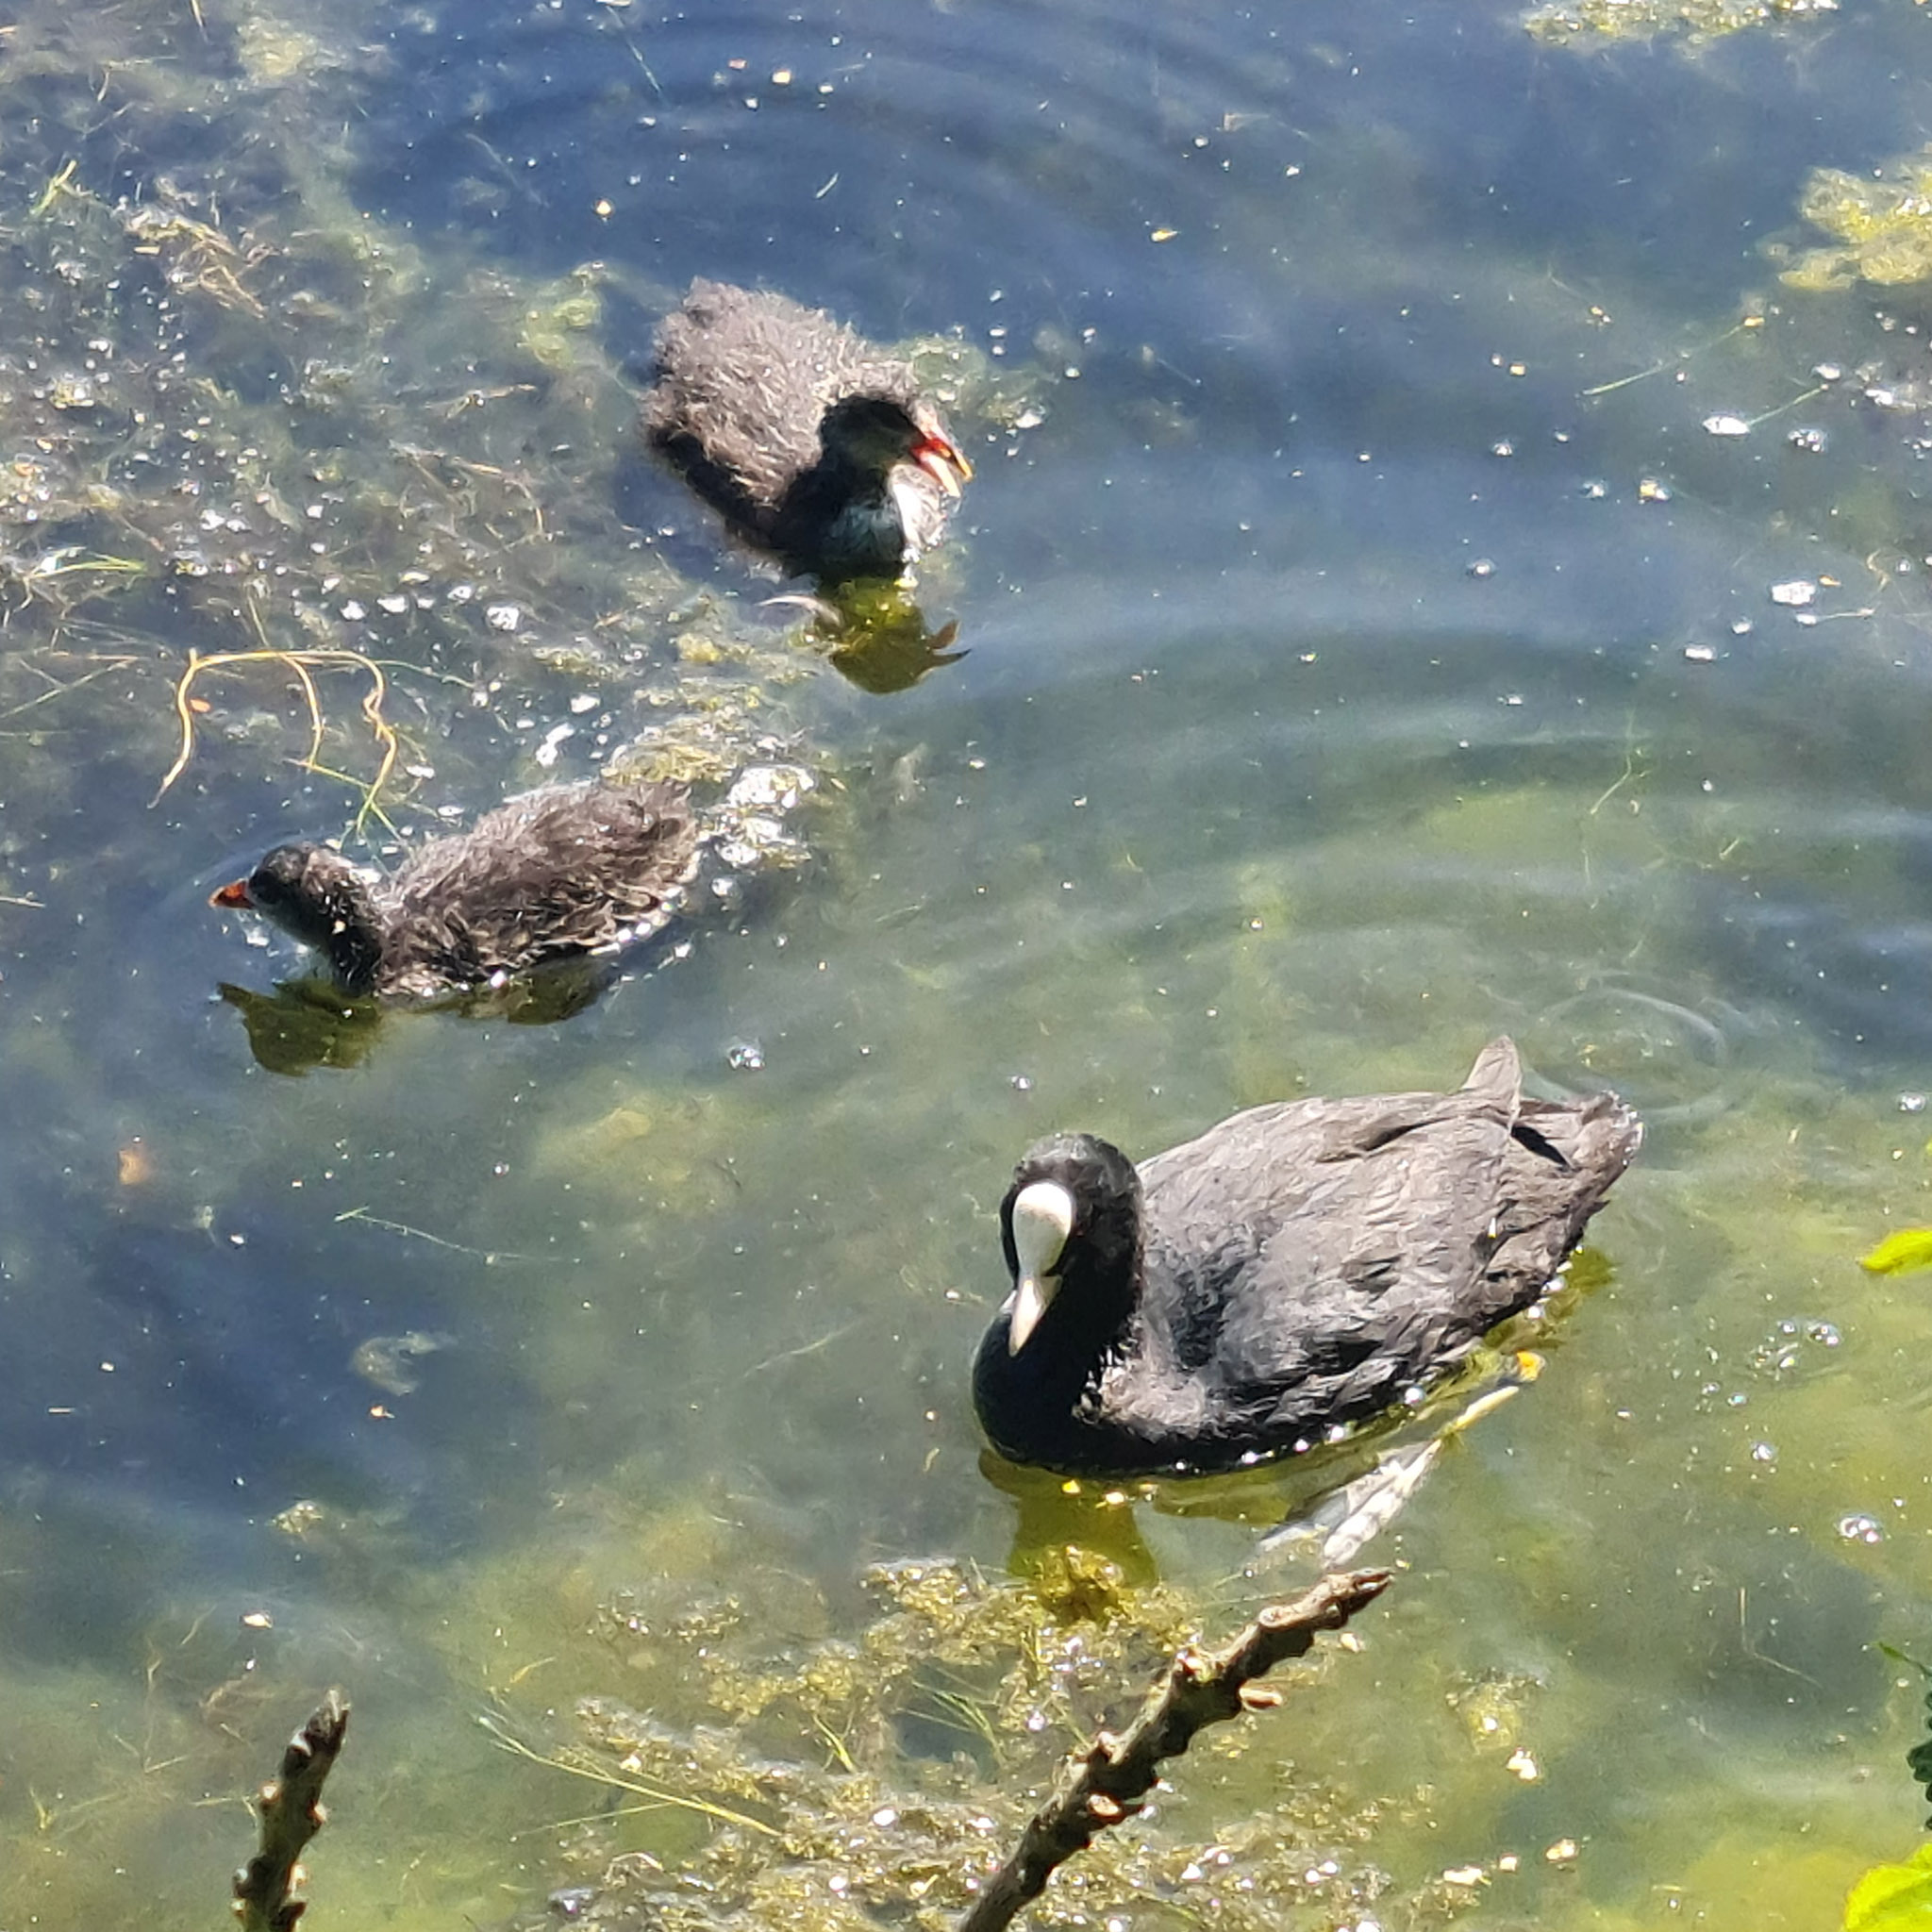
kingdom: Animalia
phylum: Chordata
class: Aves
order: Gruiformes
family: Rallidae
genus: Fulica
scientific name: Fulica atra
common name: Eurasian coot
